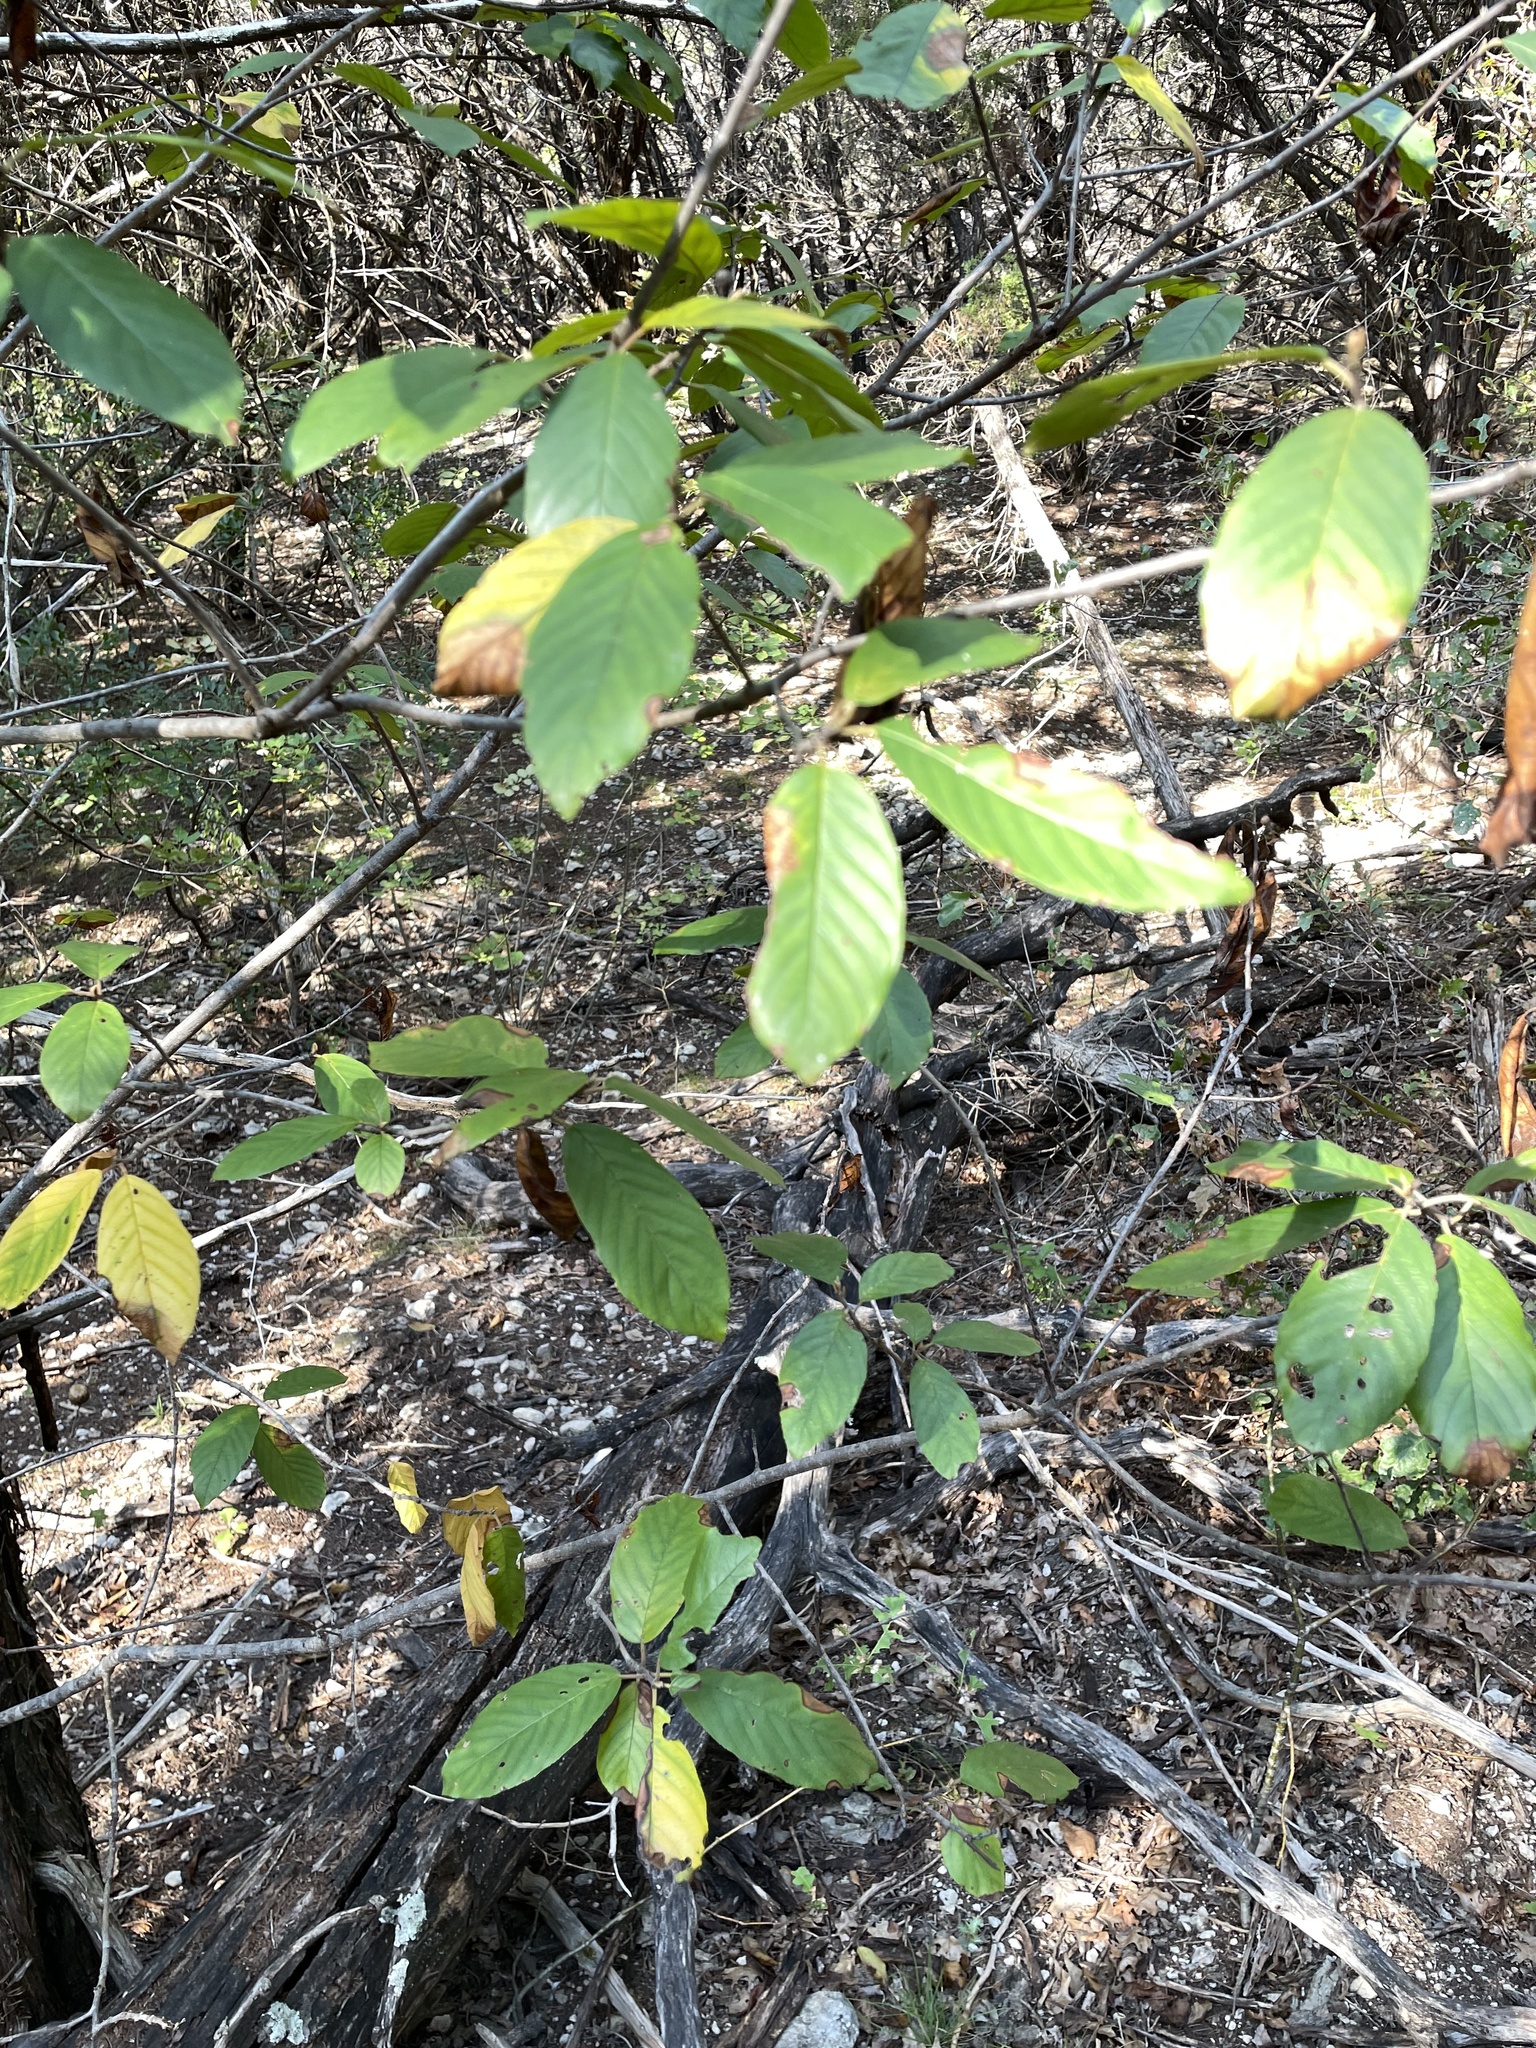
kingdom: Plantae
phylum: Tracheophyta
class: Magnoliopsida
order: Rosales
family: Rhamnaceae
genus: Frangula
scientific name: Frangula caroliniana
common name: Carolina buckthorn
